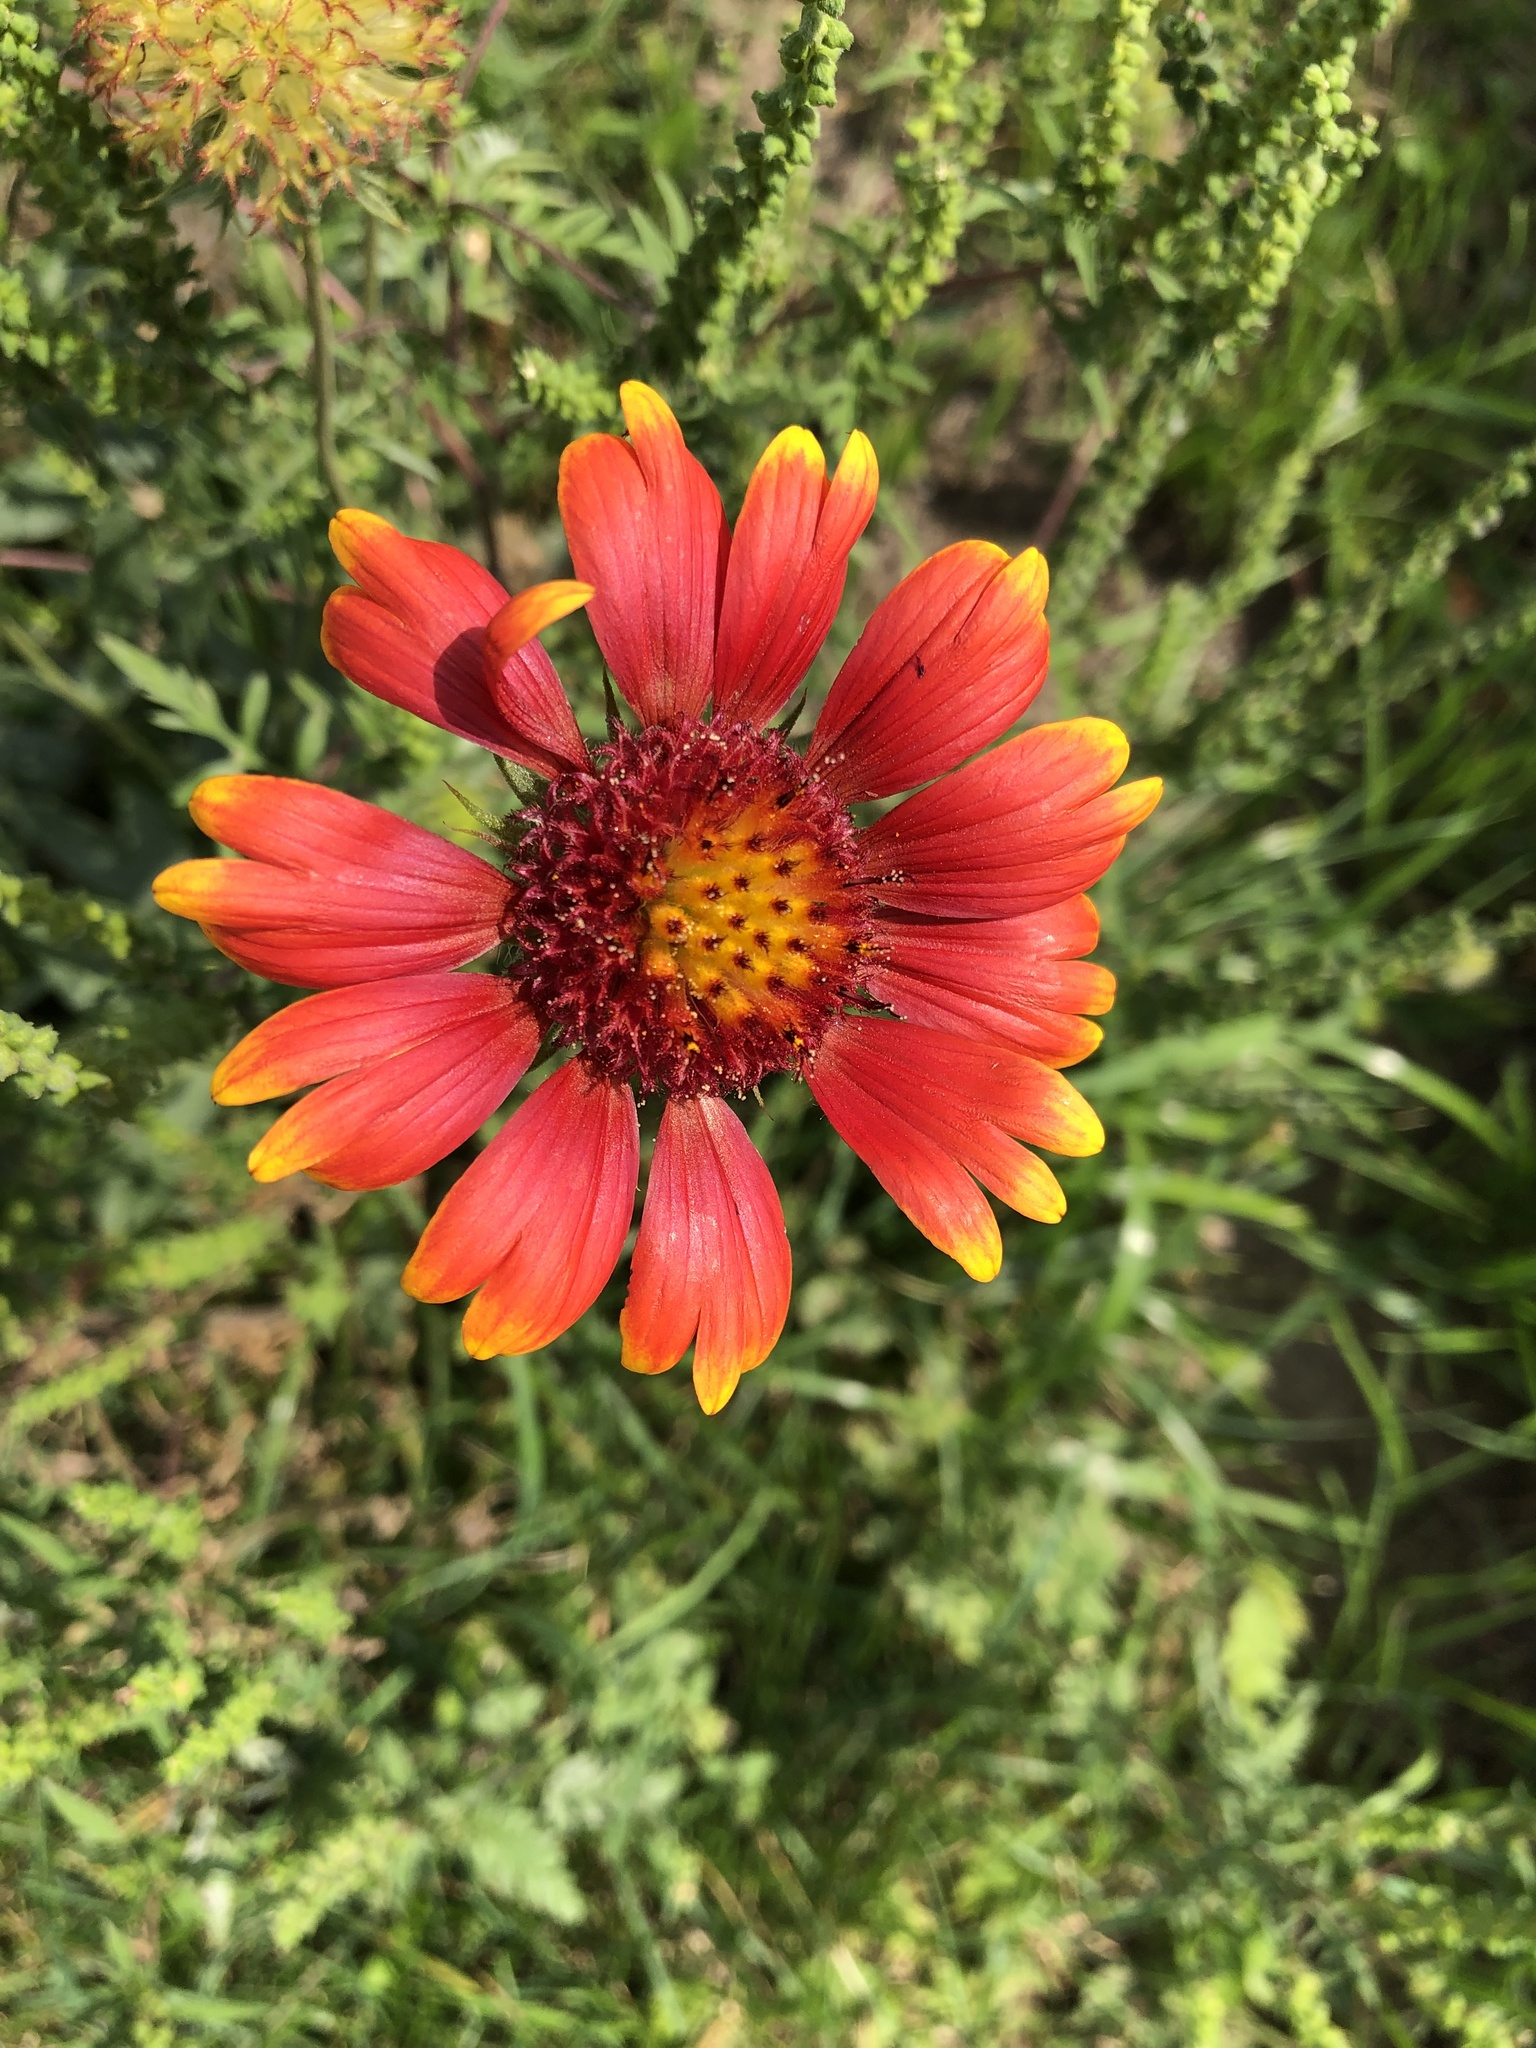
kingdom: Plantae
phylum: Tracheophyta
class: Magnoliopsida
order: Asterales
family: Asteraceae
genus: Gaillardia
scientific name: Gaillardia pulchella
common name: Firewheel
